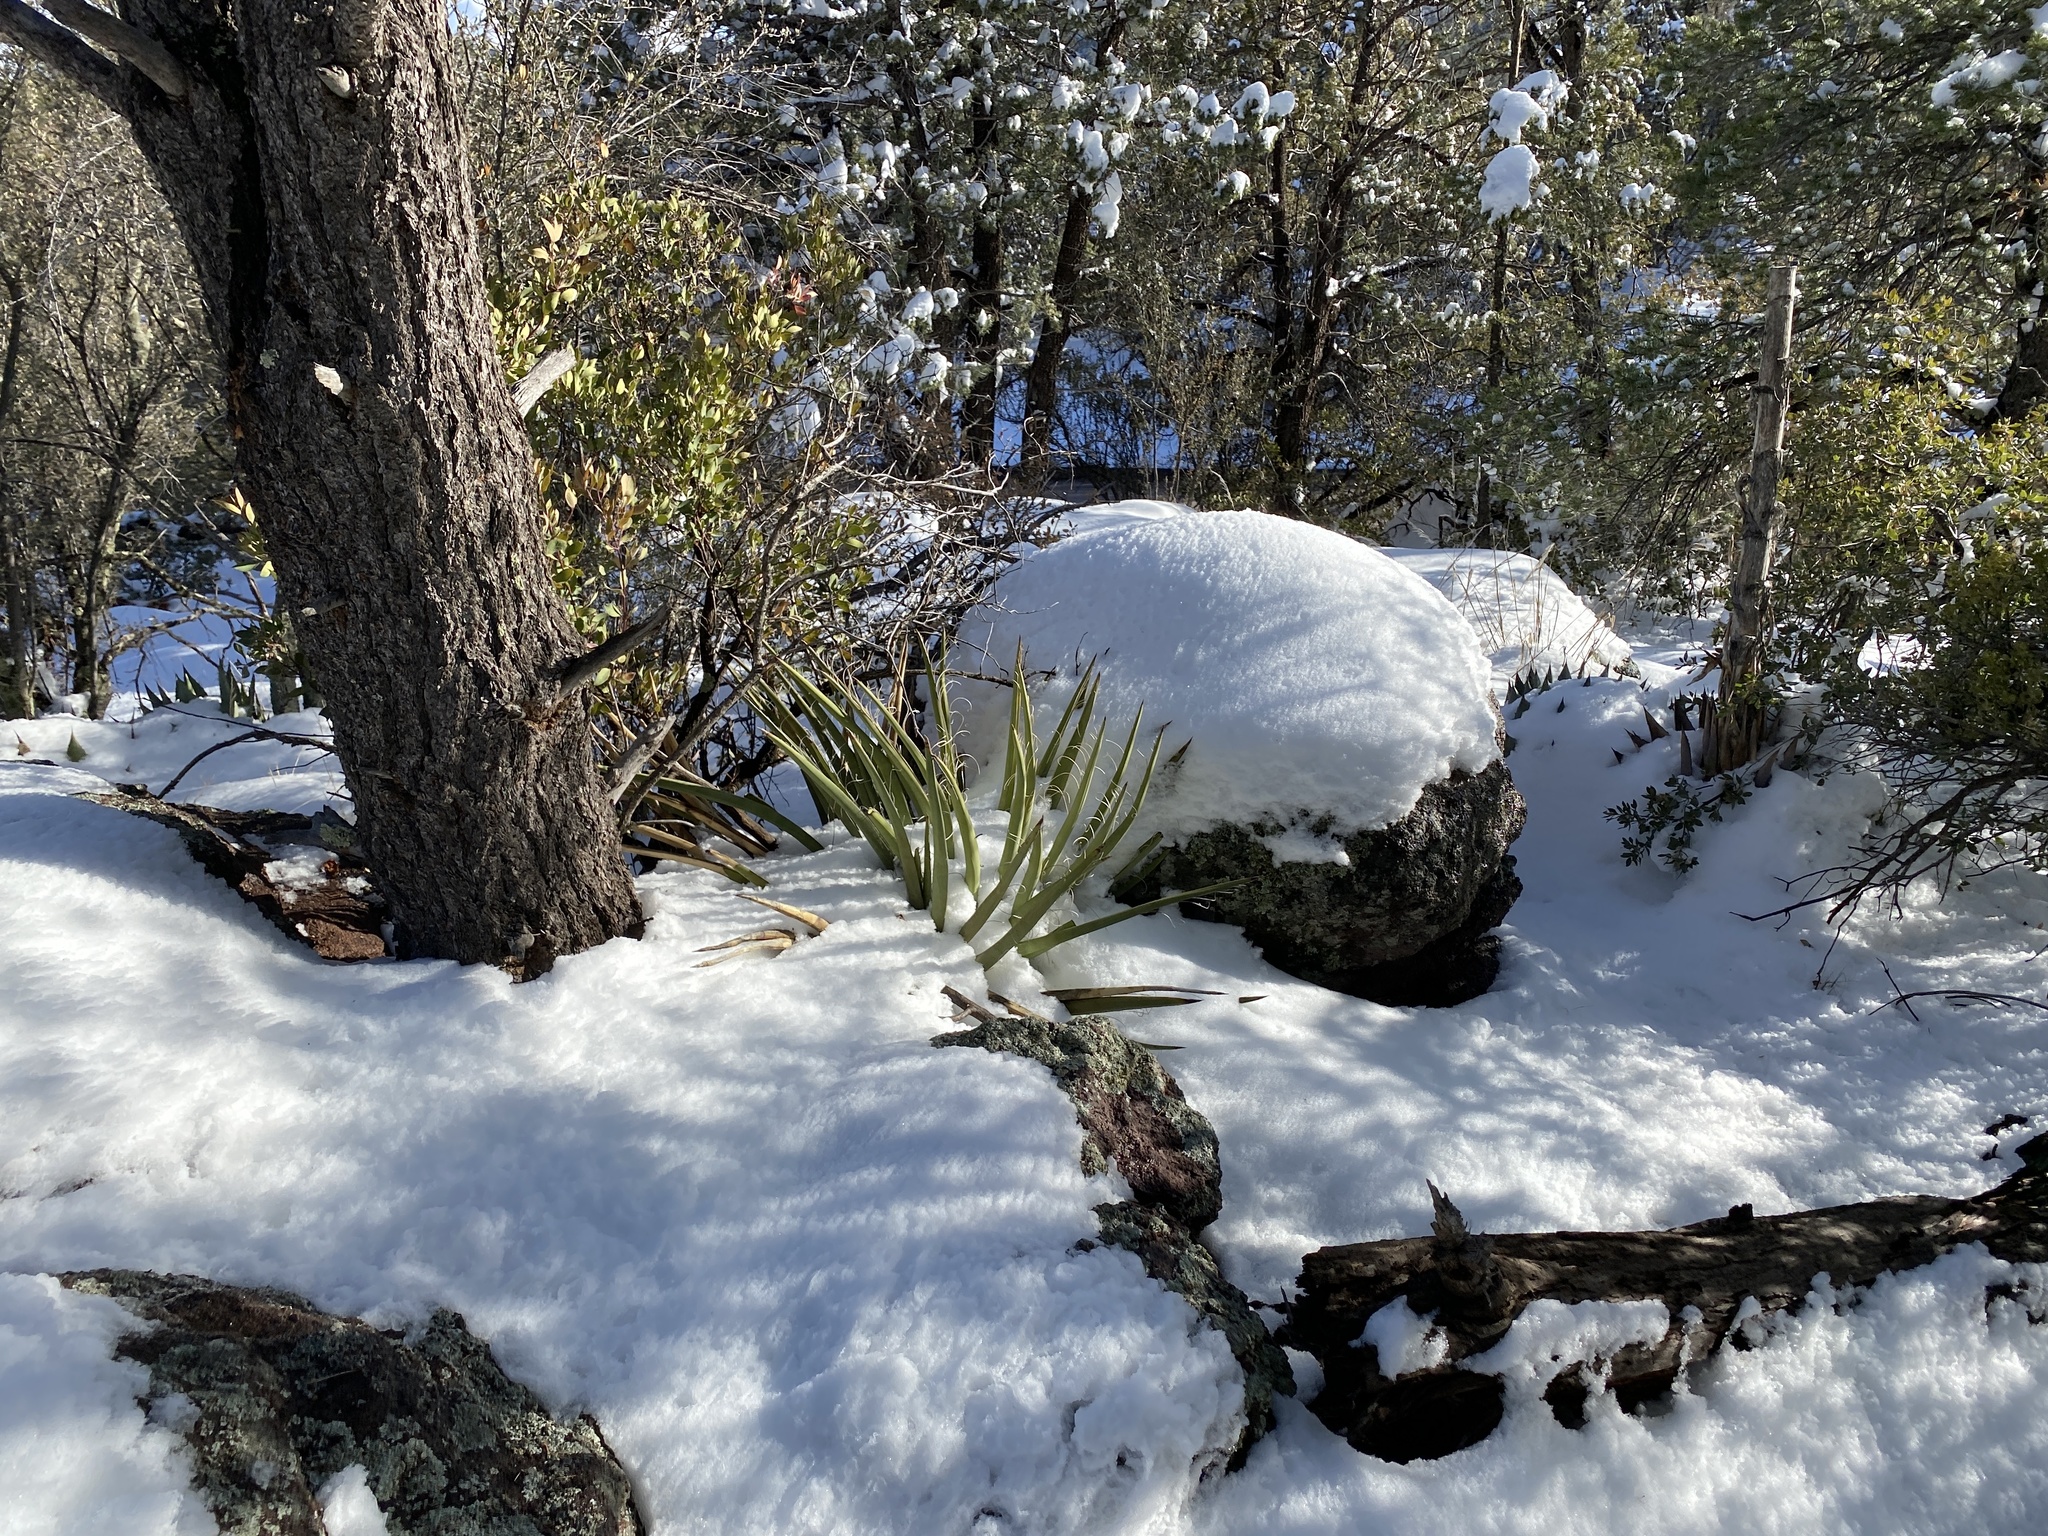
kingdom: Plantae
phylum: Tracheophyta
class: Liliopsida
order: Asparagales
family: Asparagaceae
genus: Yucca
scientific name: Yucca baccata
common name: Banana yucca
